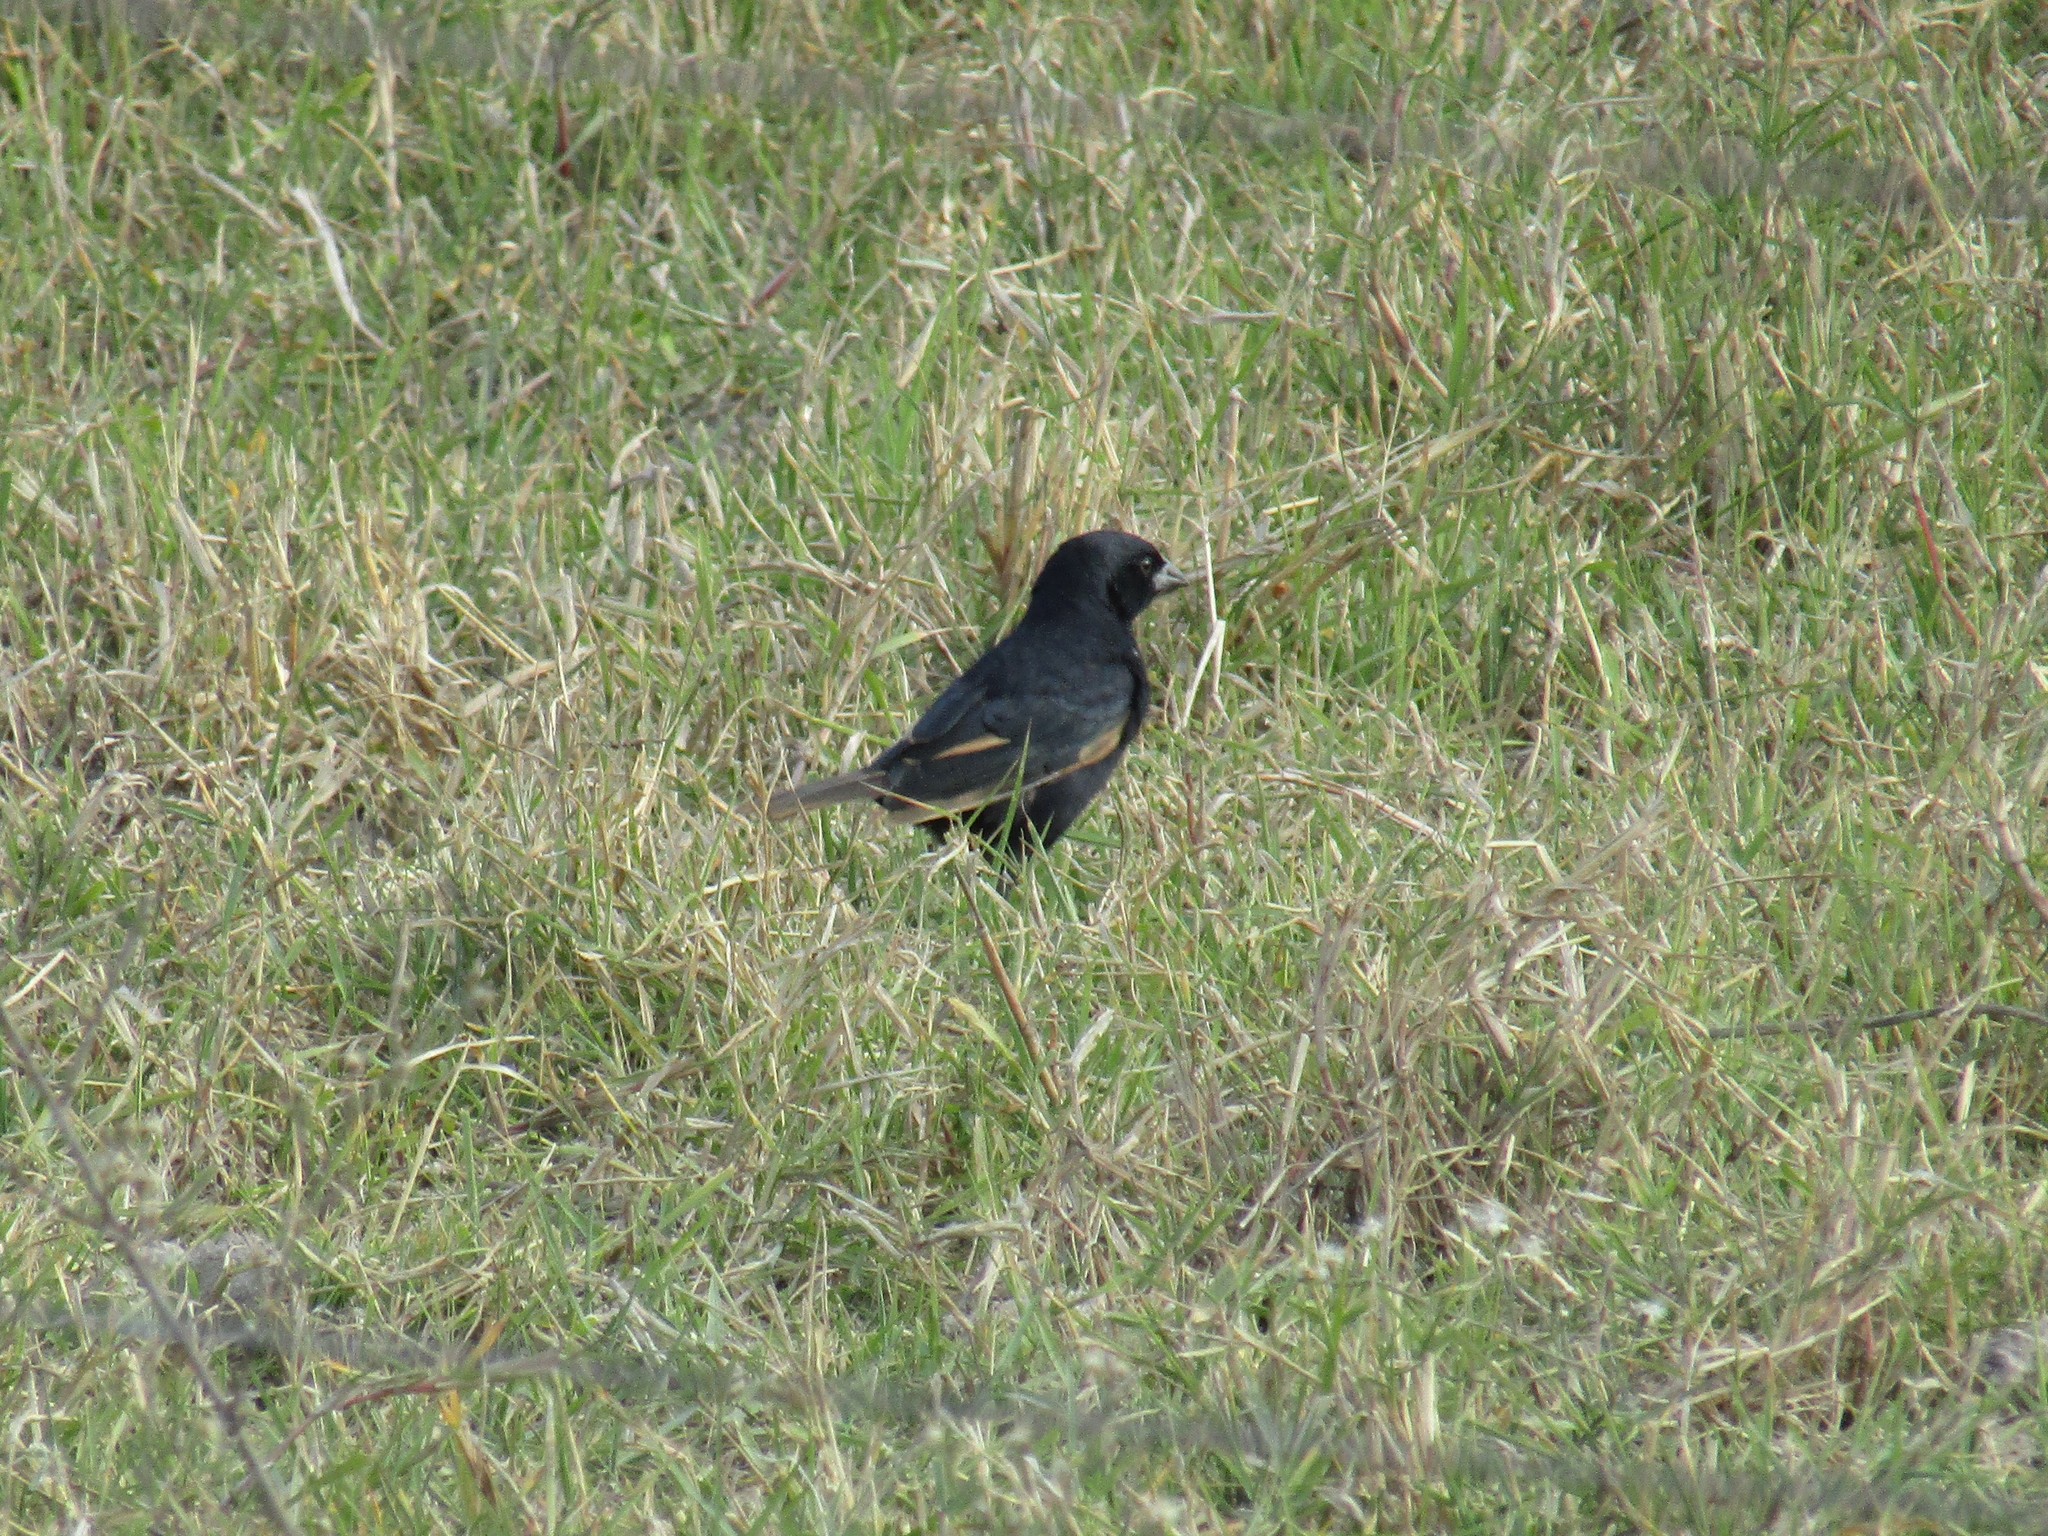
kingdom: Animalia
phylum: Chordata
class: Aves
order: Passeriformes
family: Icteridae
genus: Molothrus
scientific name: Molothrus rufoaxillaris
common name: Screaming cowbird
